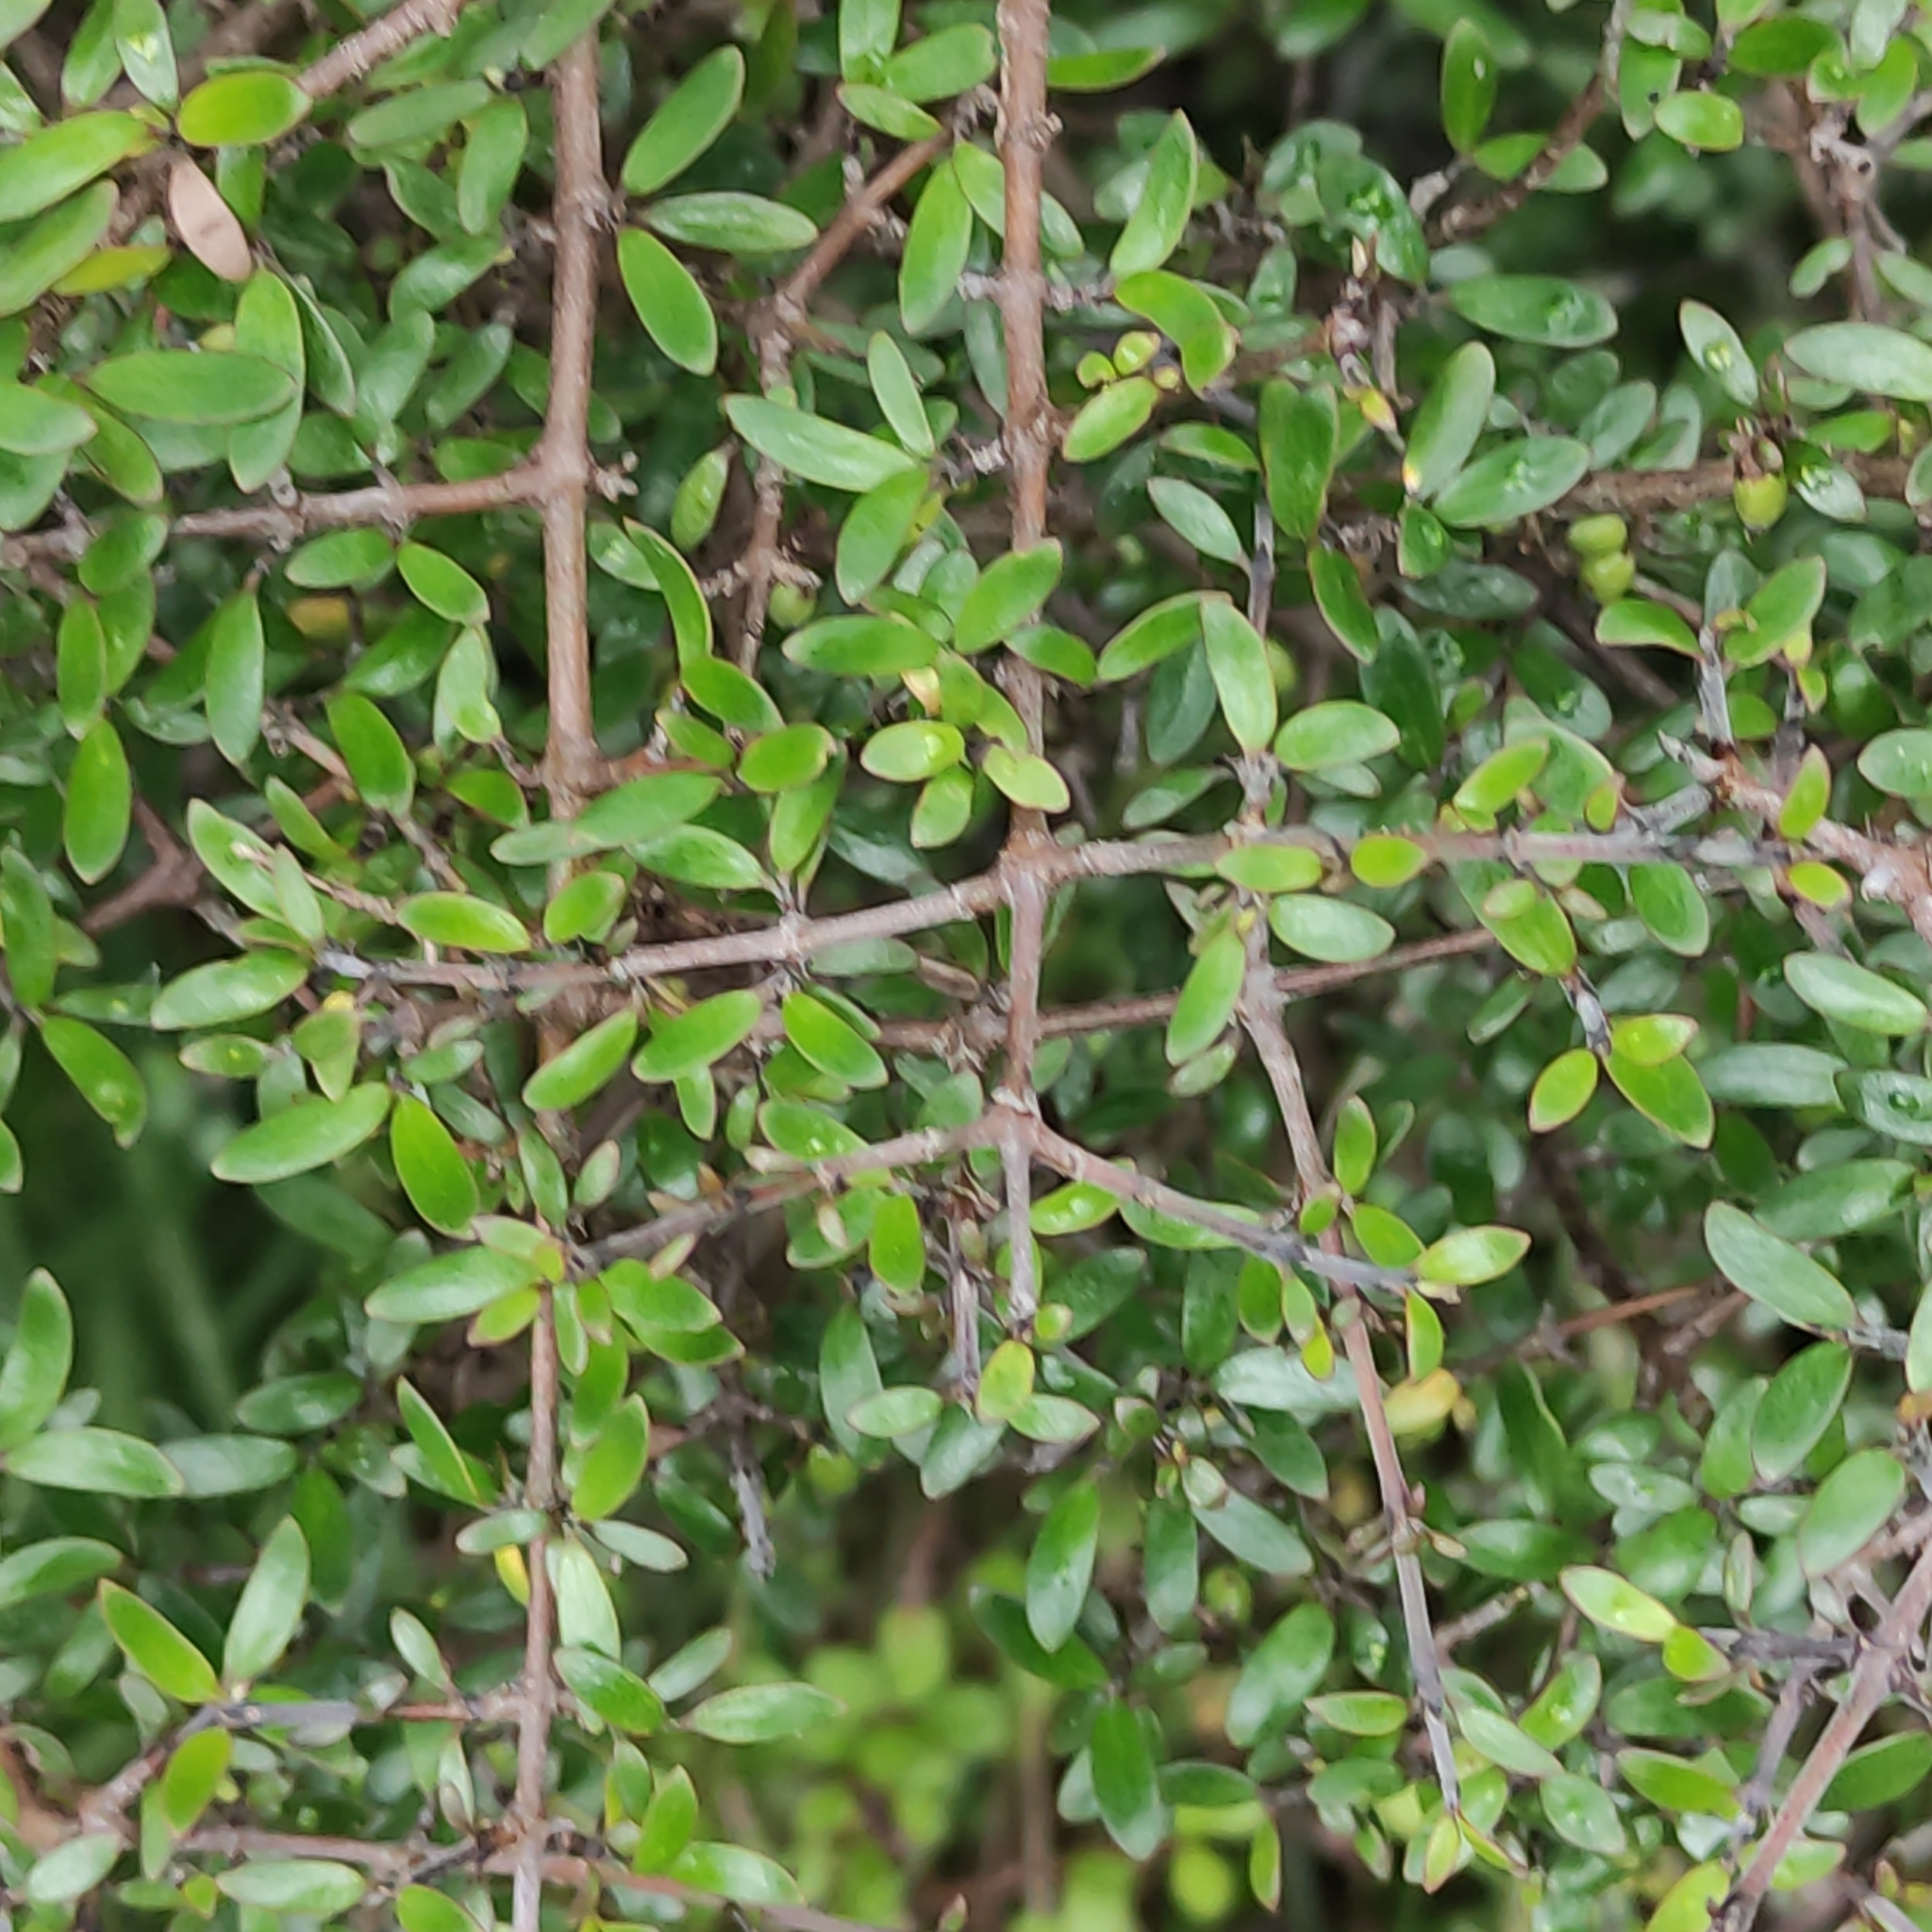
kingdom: Plantae
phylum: Tracheophyta
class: Magnoliopsida
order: Gentianales
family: Rubiaceae
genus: Coprosma
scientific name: Coprosma propinqua
